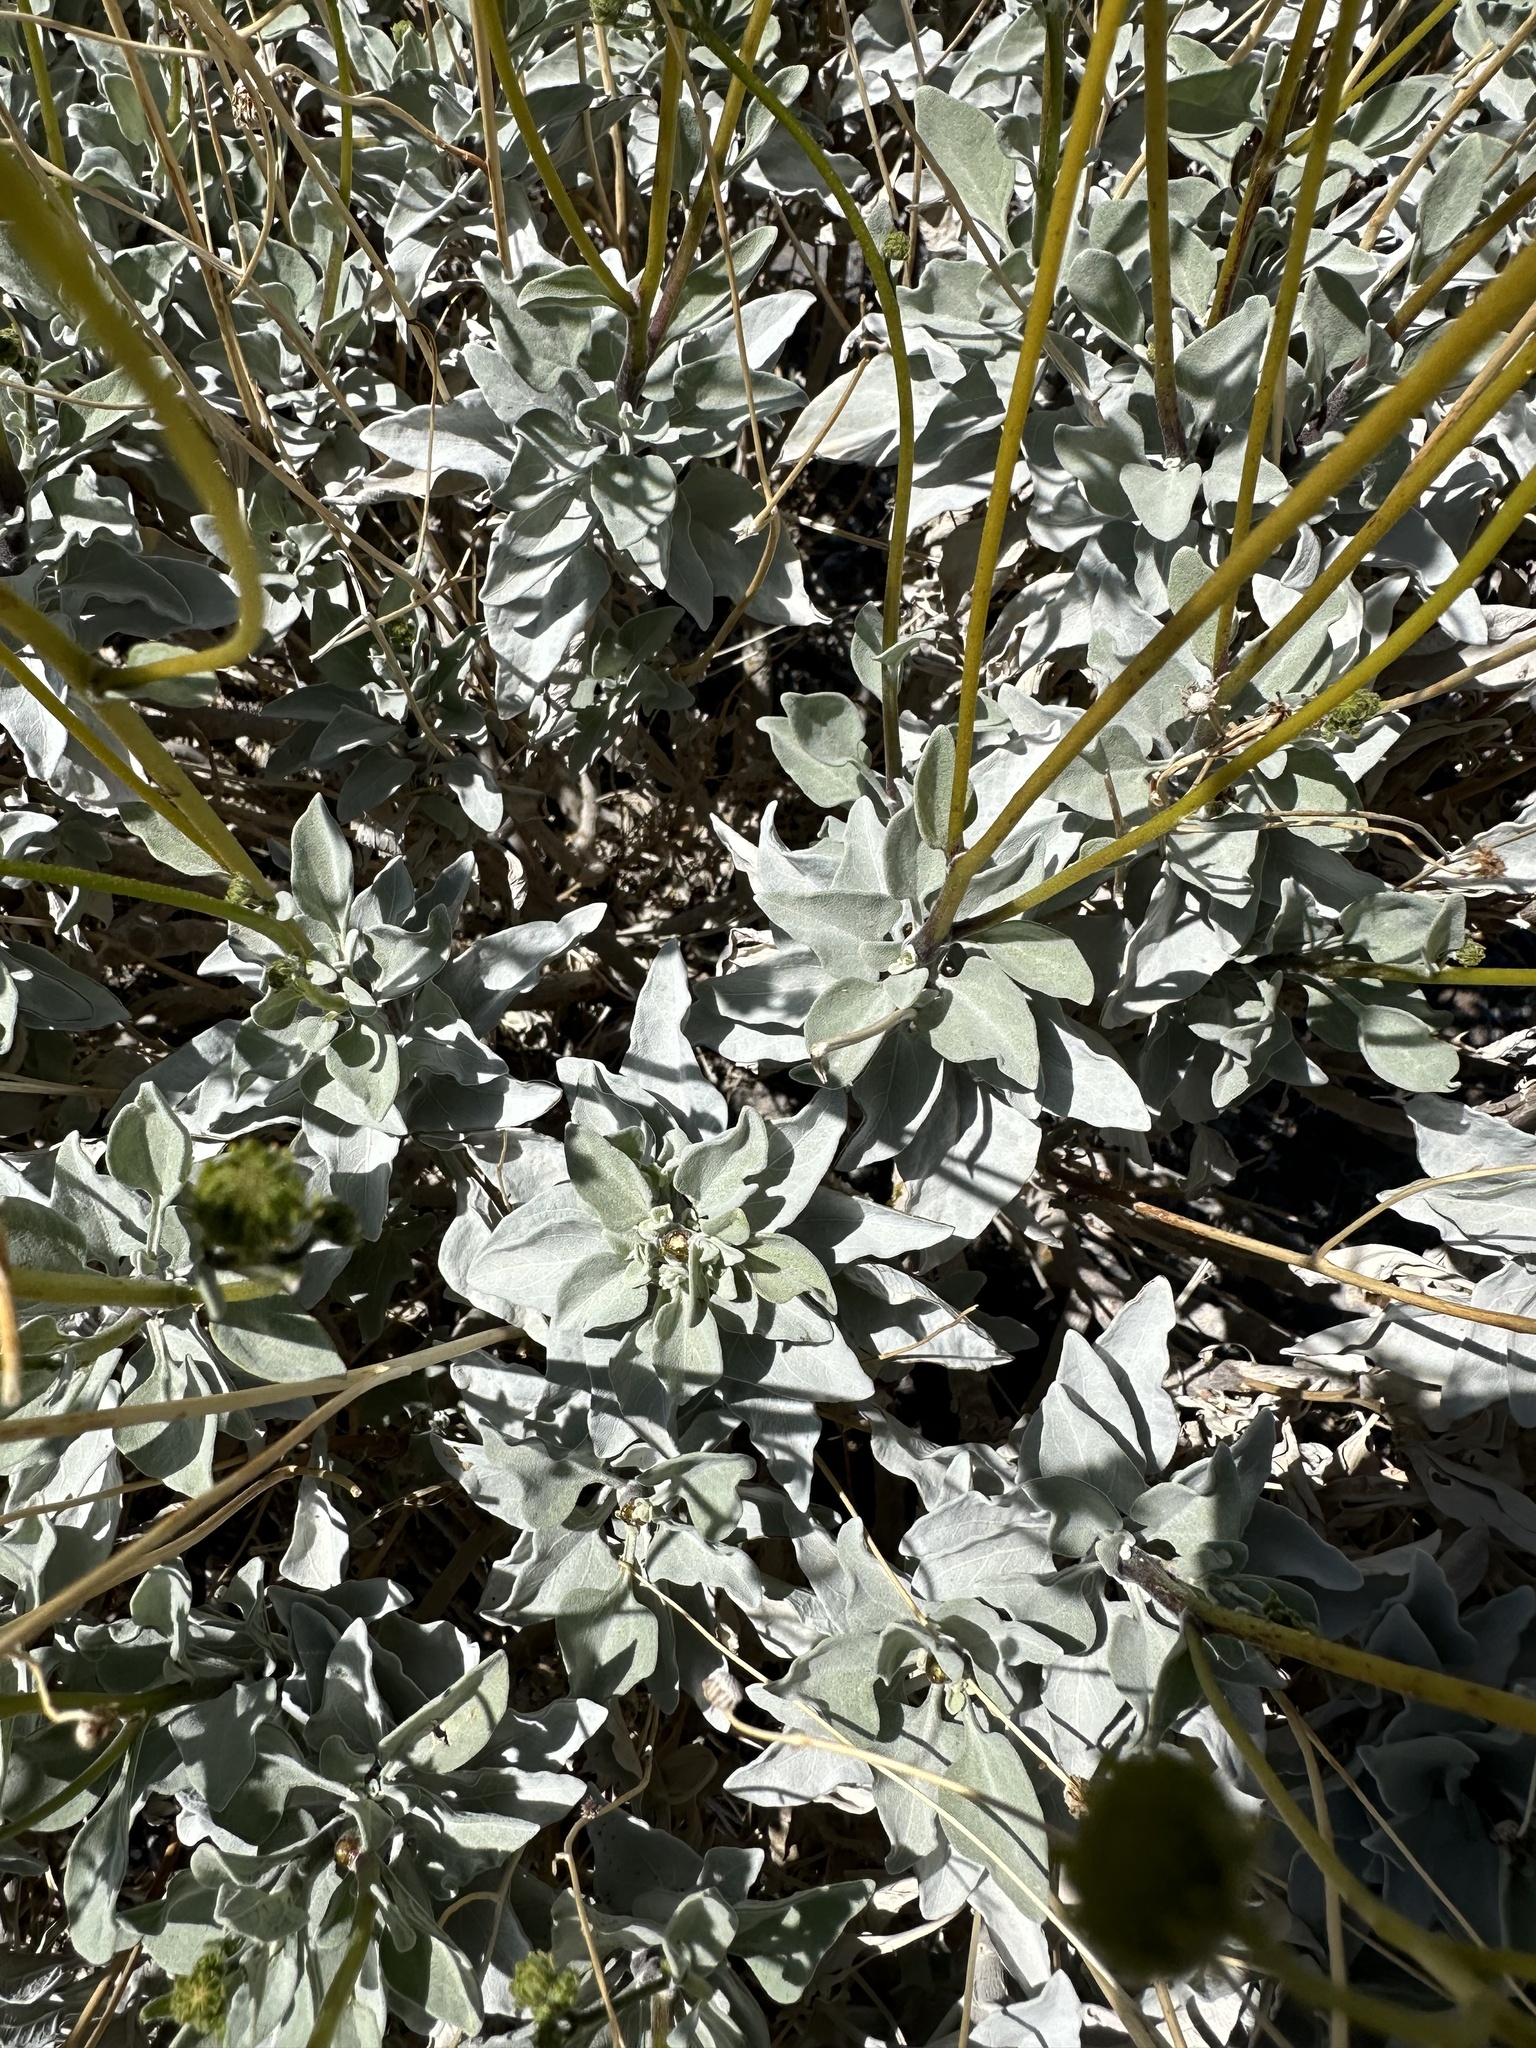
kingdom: Plantae
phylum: Tracheophyta
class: Magnoliopsida
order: Asterales
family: Asteraceae
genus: Encelia
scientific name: Encelia farinosa
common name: Brittlebush
